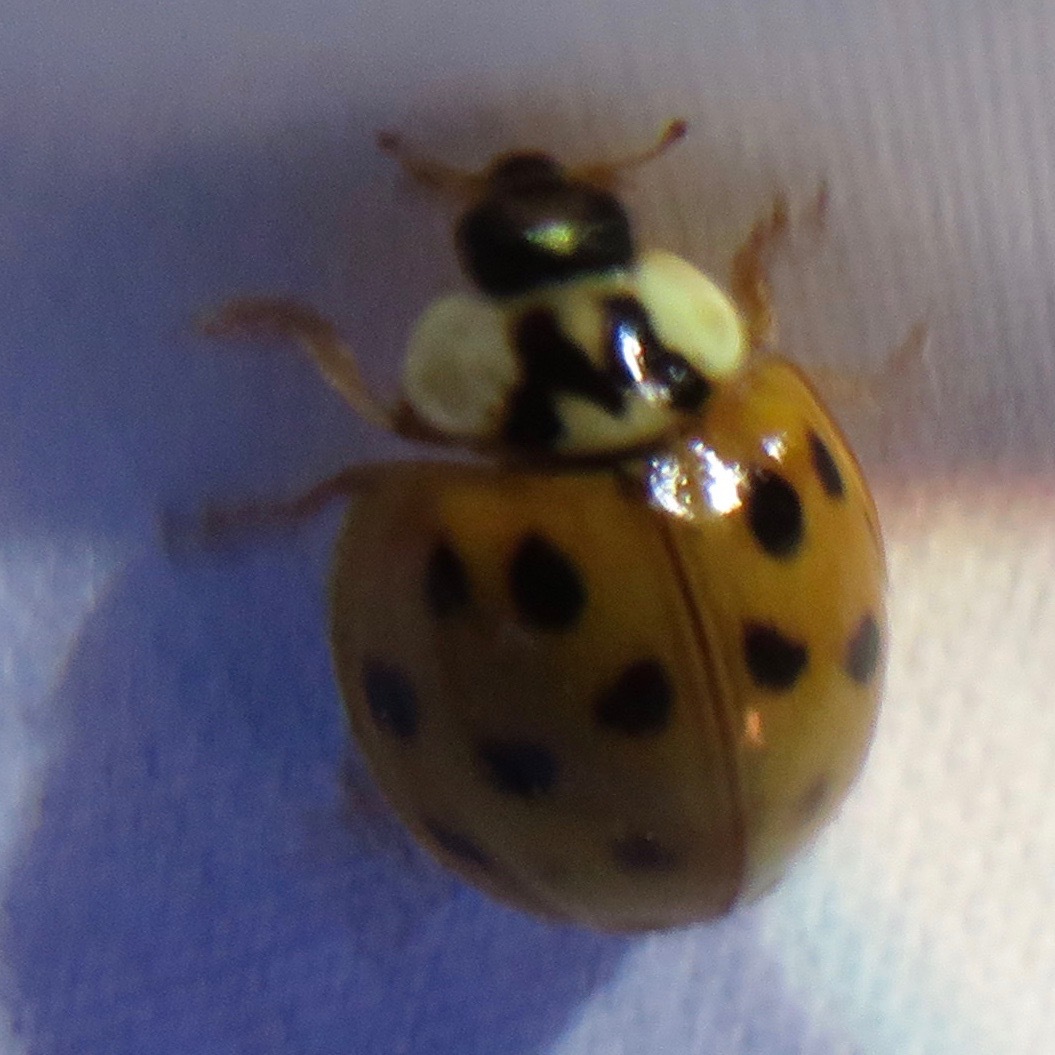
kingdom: Animalia
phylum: Arthropoda
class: Insecta
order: Coleoptera
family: Coccinellidae
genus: Harmonia
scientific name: Harmonia axyridis
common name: Harlequin ladybird
